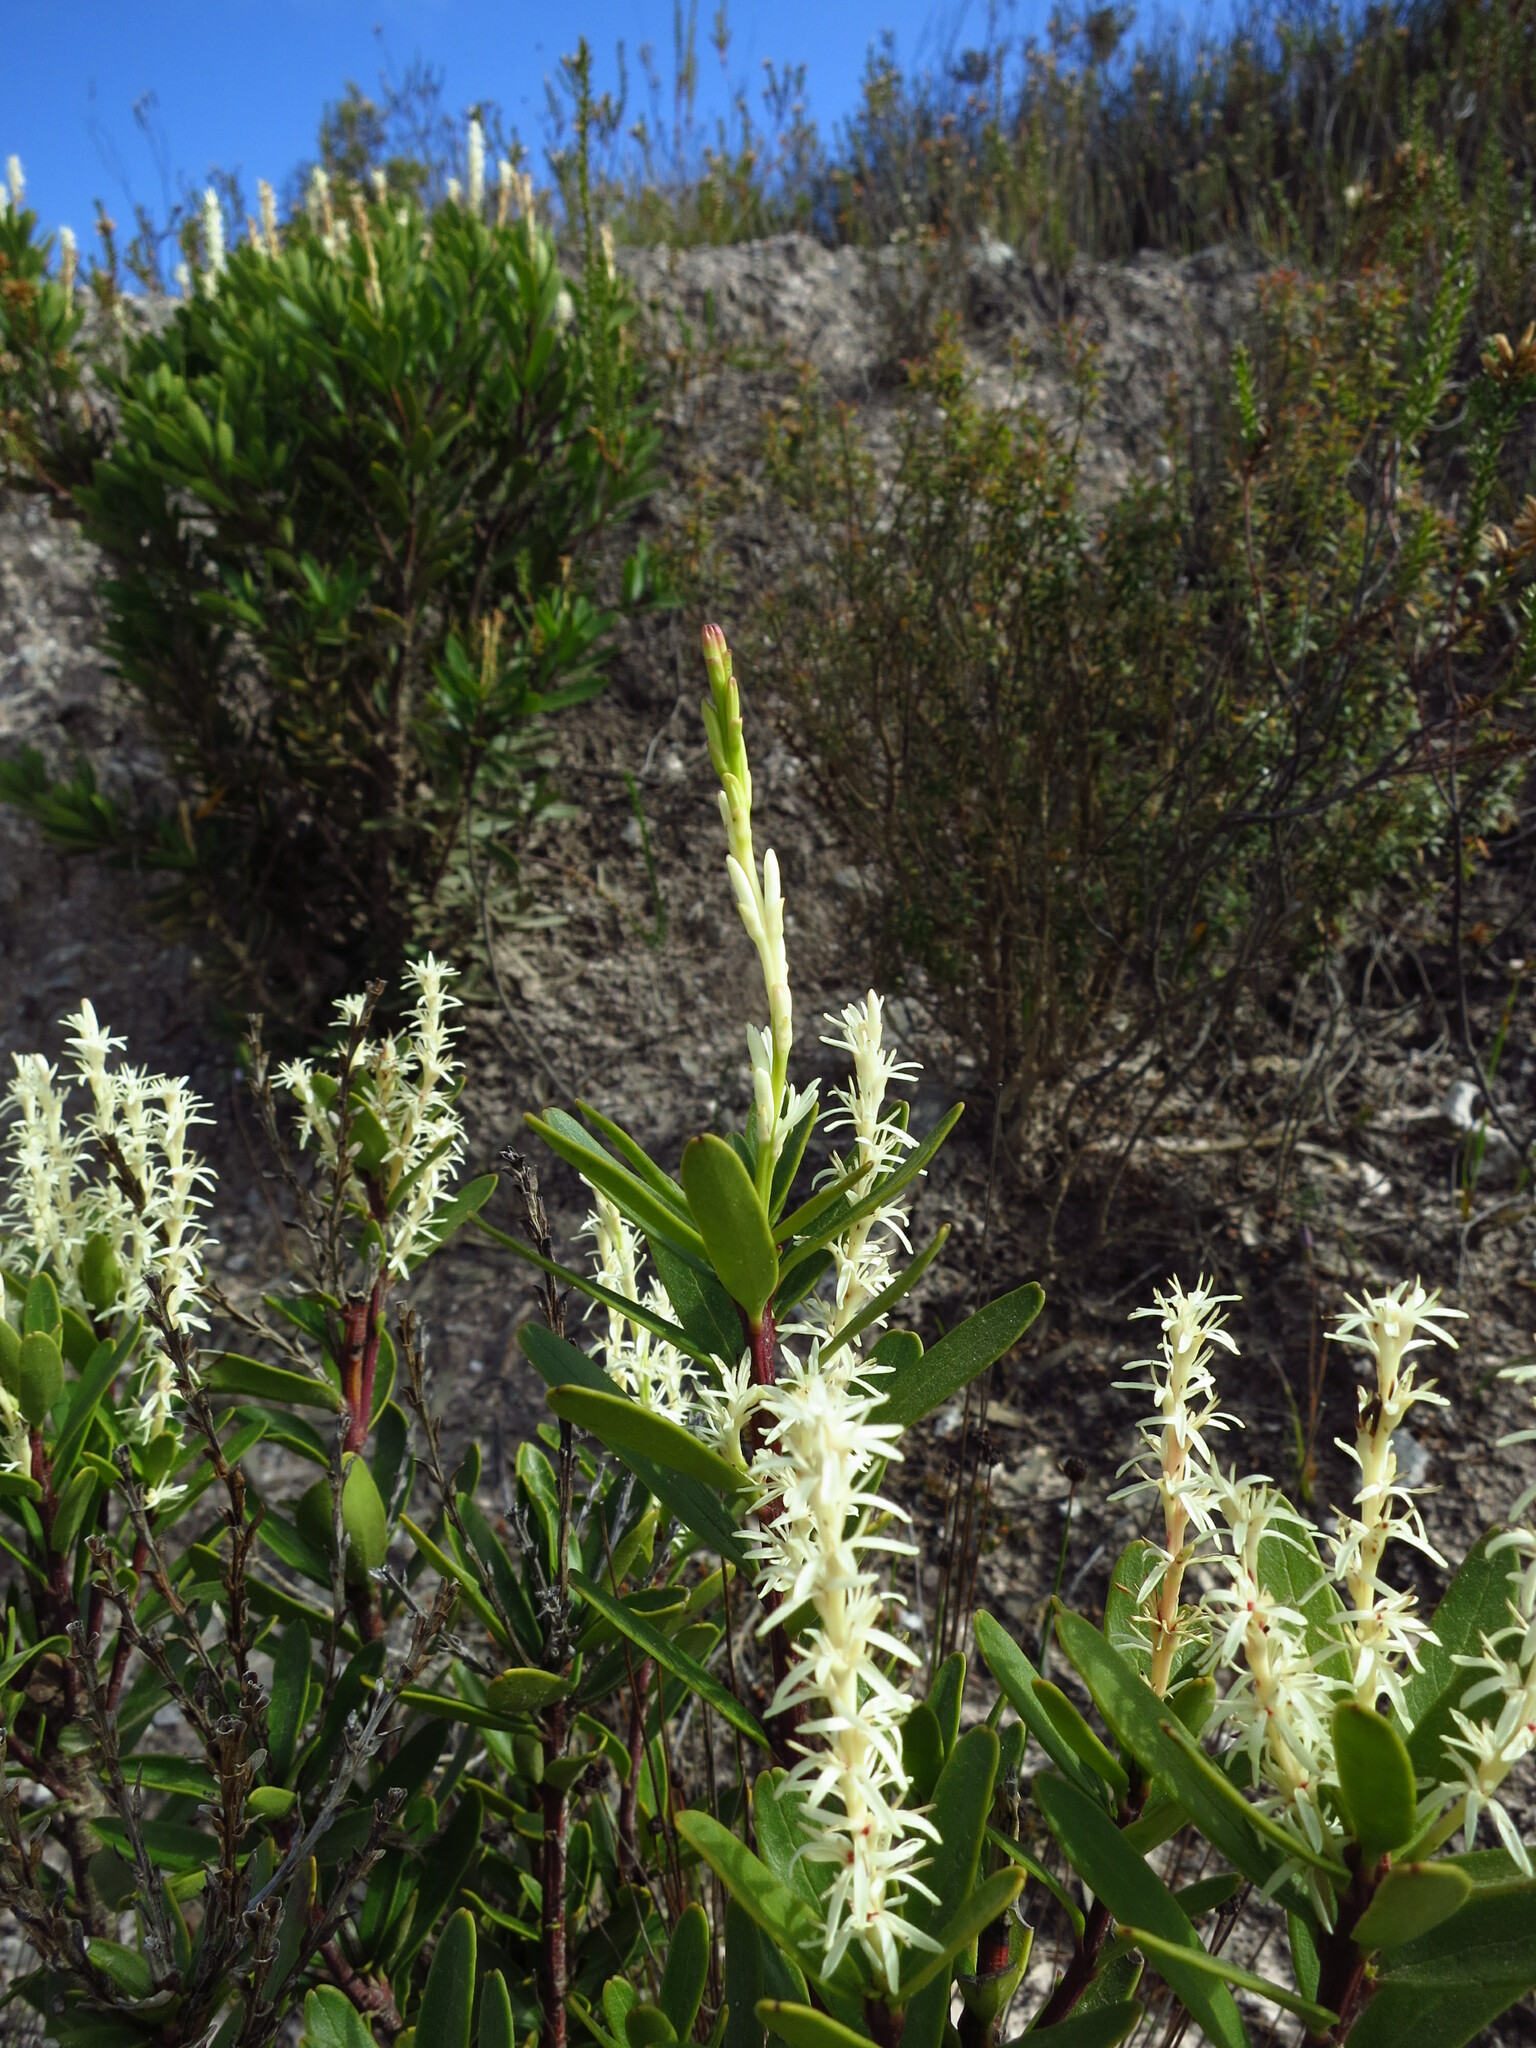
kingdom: Plantae
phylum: Tracheophyta
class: Magnoliopsida
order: Proteales
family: Proteaceae
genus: Agastachys
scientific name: Agastachys odorata
